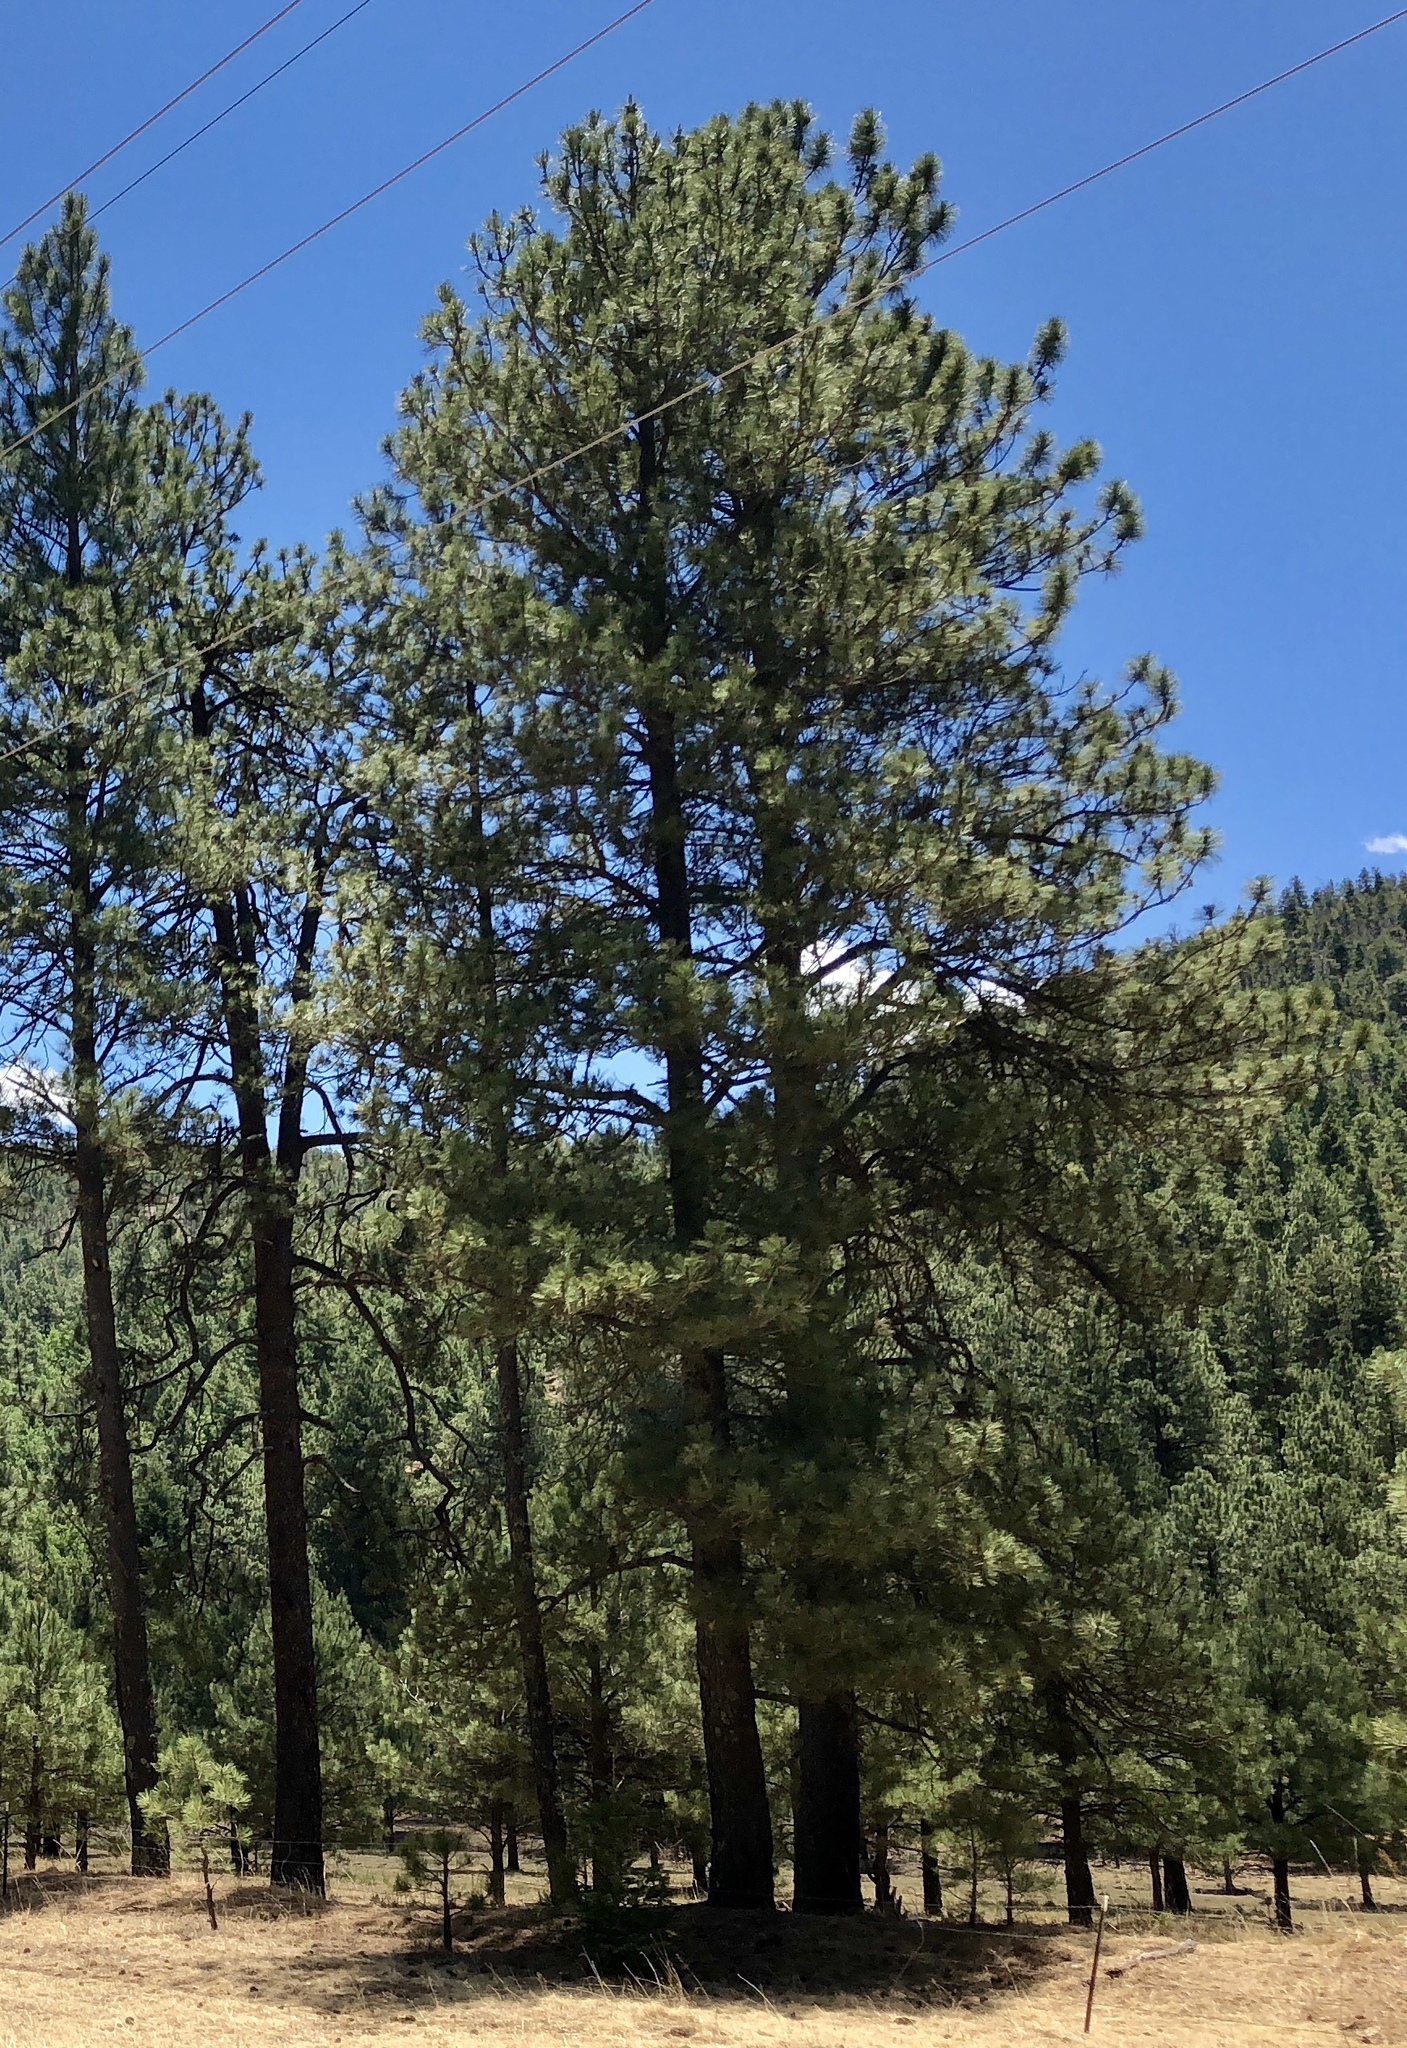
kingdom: Plantae
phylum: Tracheophyta
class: Pinopsida
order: Pinales
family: Pinaceae
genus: Pinus
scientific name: Pinus ponderosa
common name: Western yellow-pine
